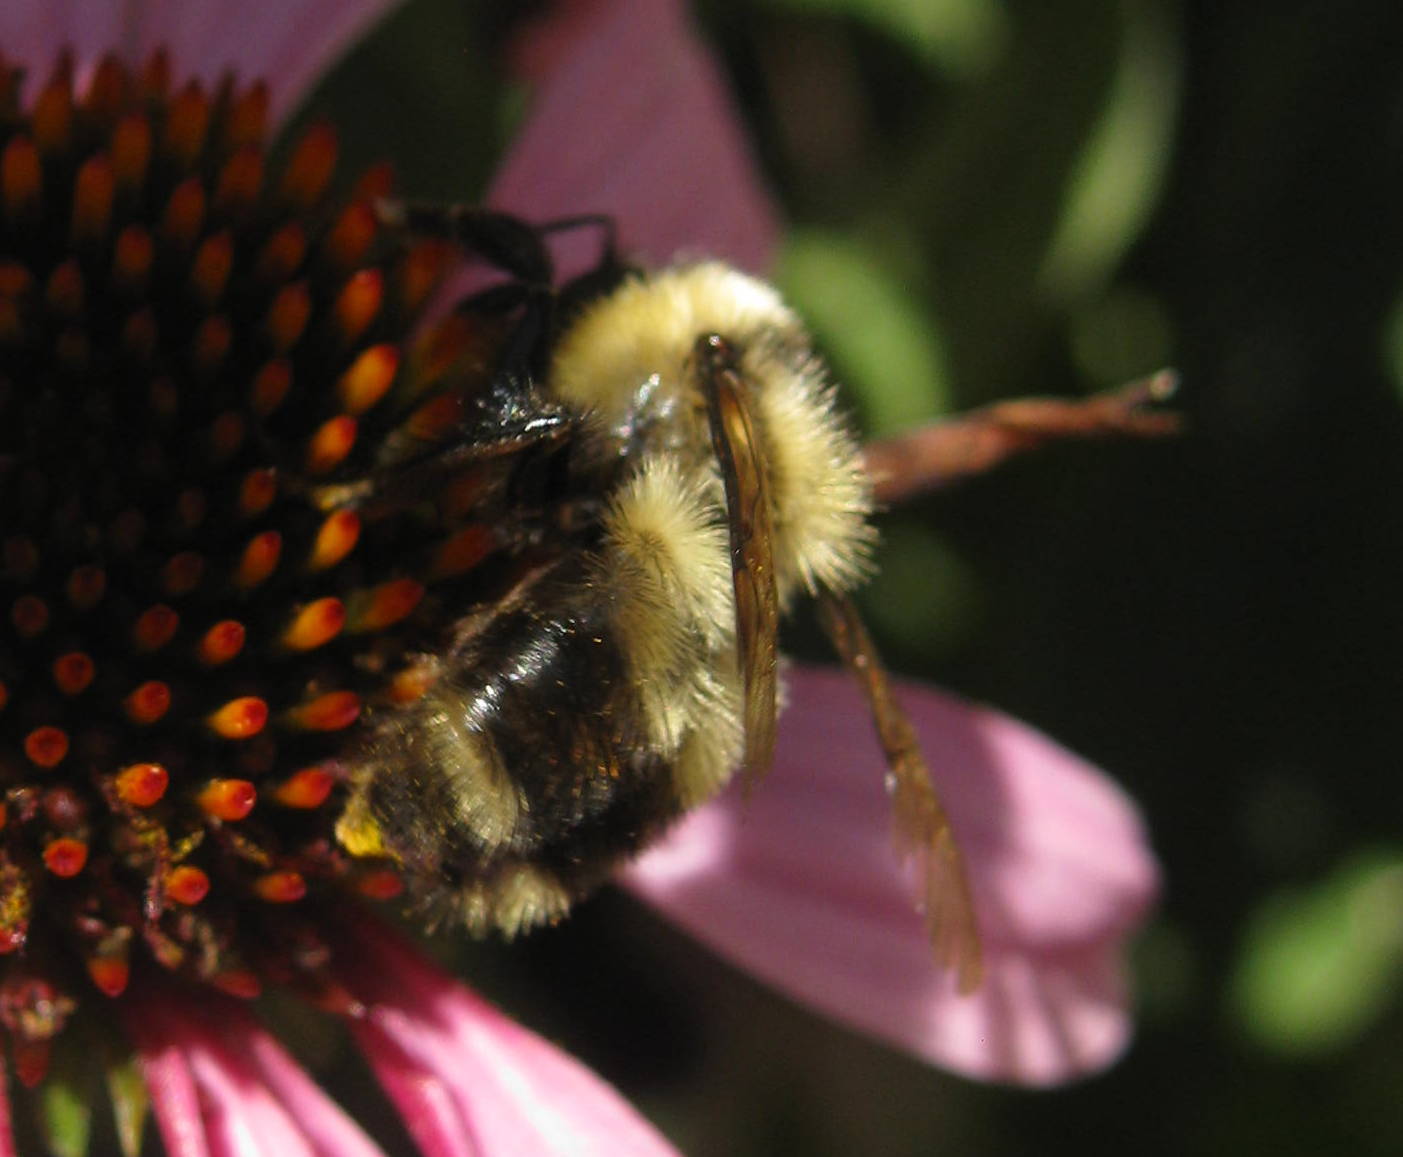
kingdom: Animalia
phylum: Arthropoda
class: Insecta
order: Hymenoptera
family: Apidae
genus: Bombus
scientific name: Bombus rufocinctus
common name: Red-belted bumble bee
